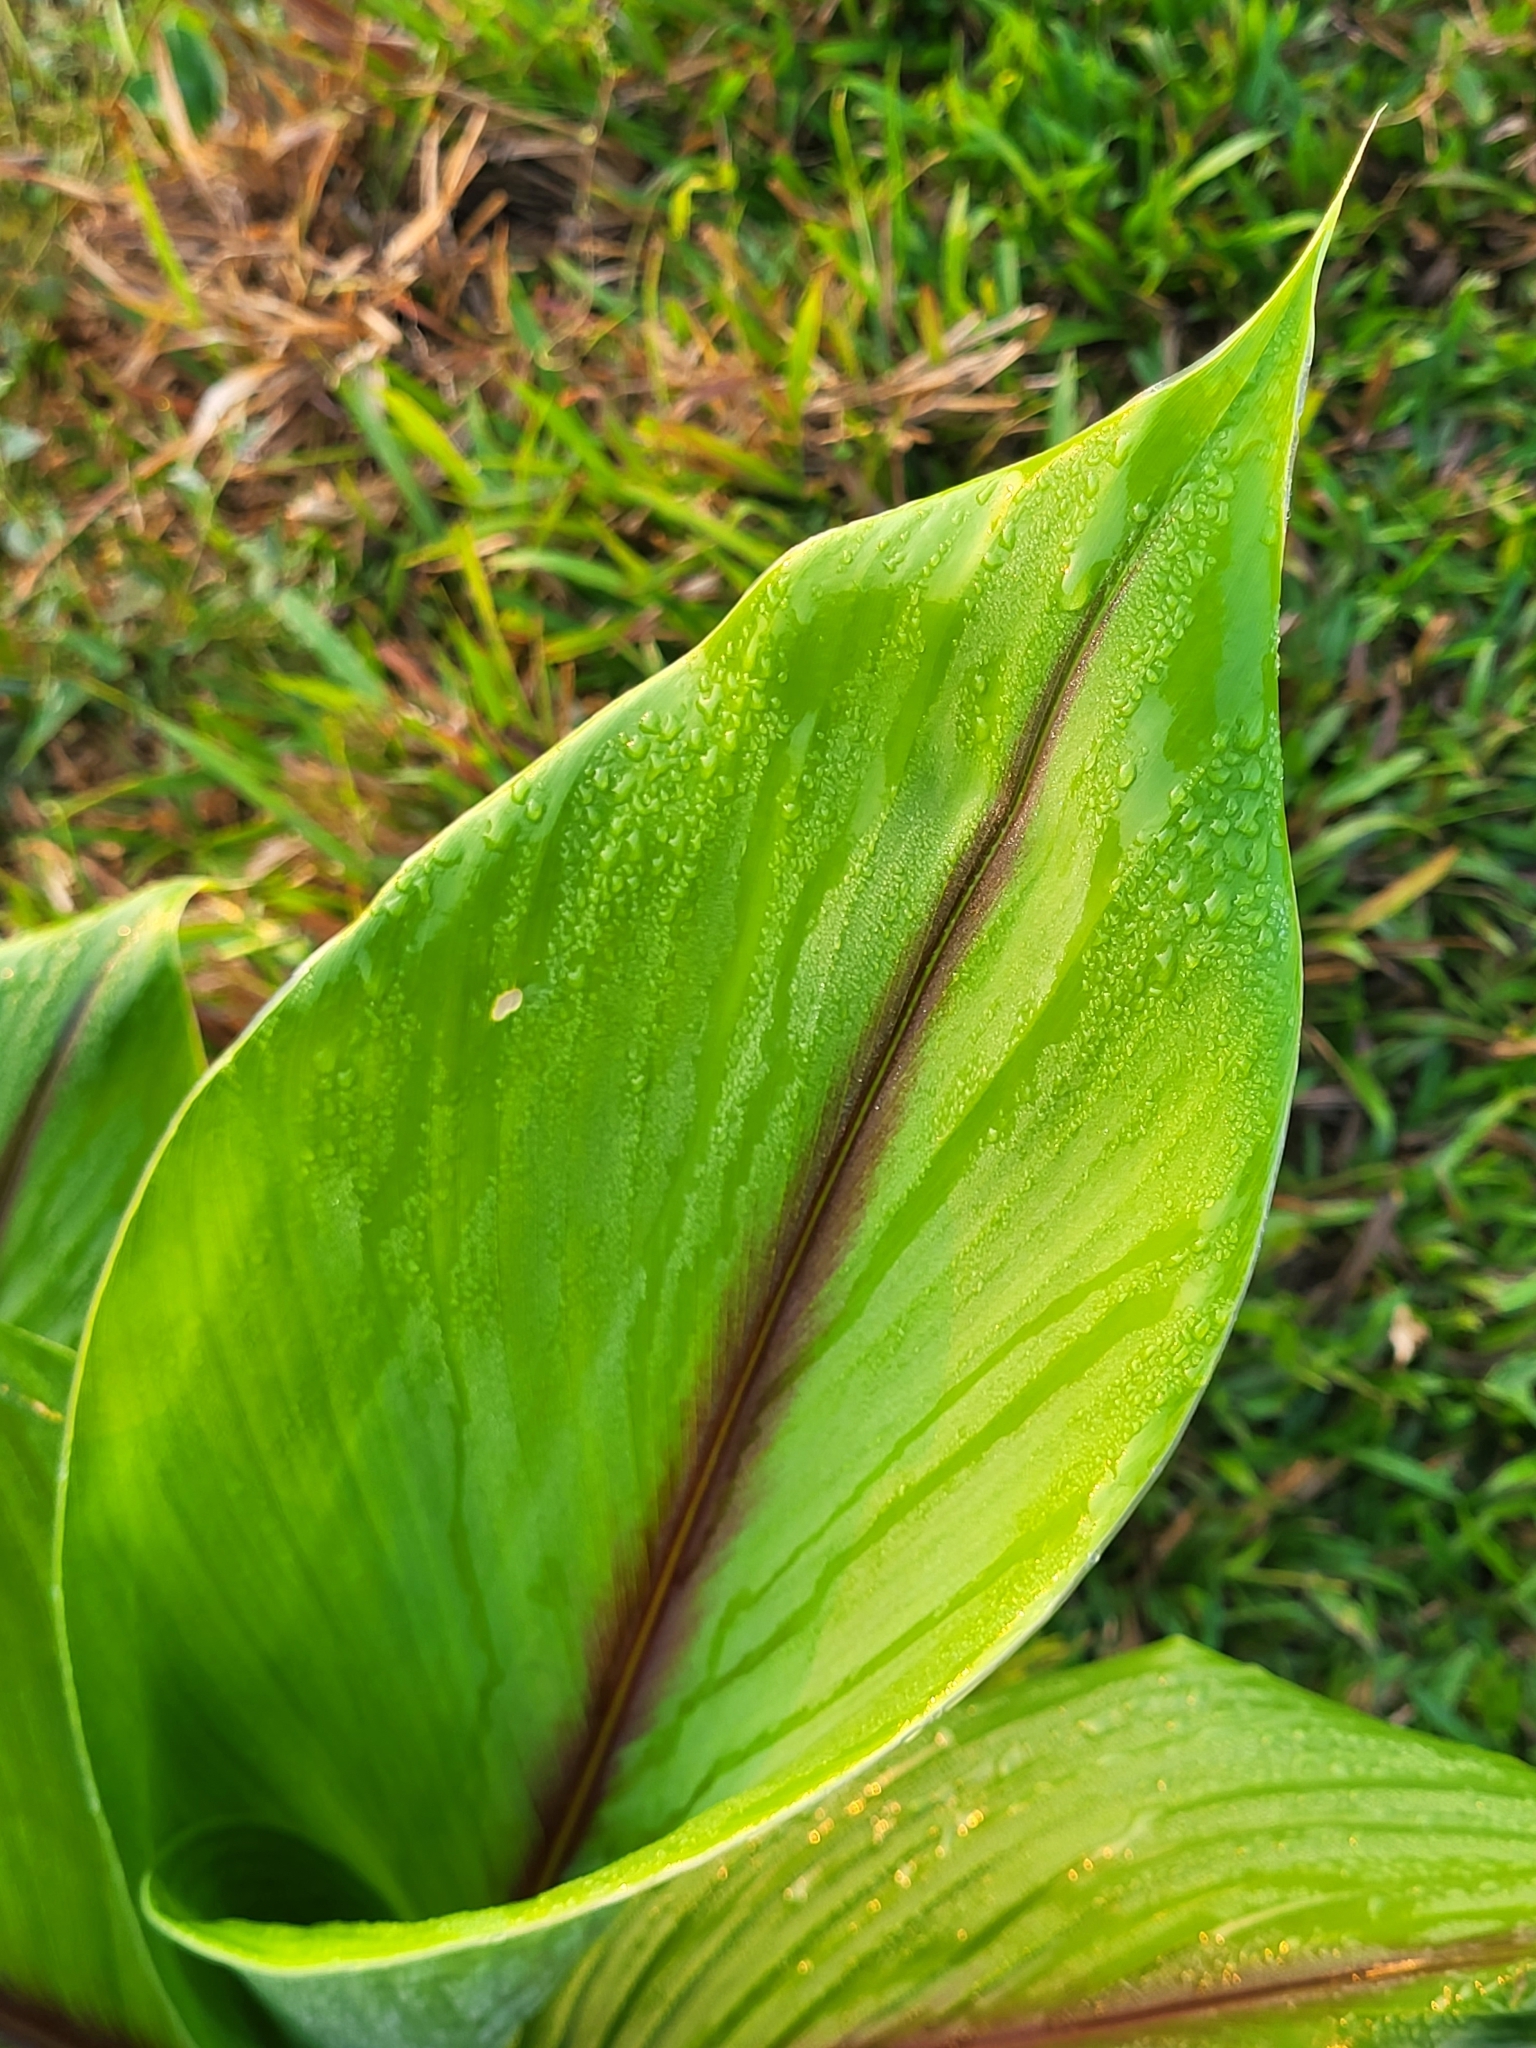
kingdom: Plantae
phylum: Tracheophyta
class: Liliopsida
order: Zingiberales
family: Zingiberaceae
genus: Curcuma
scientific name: Curcuma longa
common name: Turmeric
